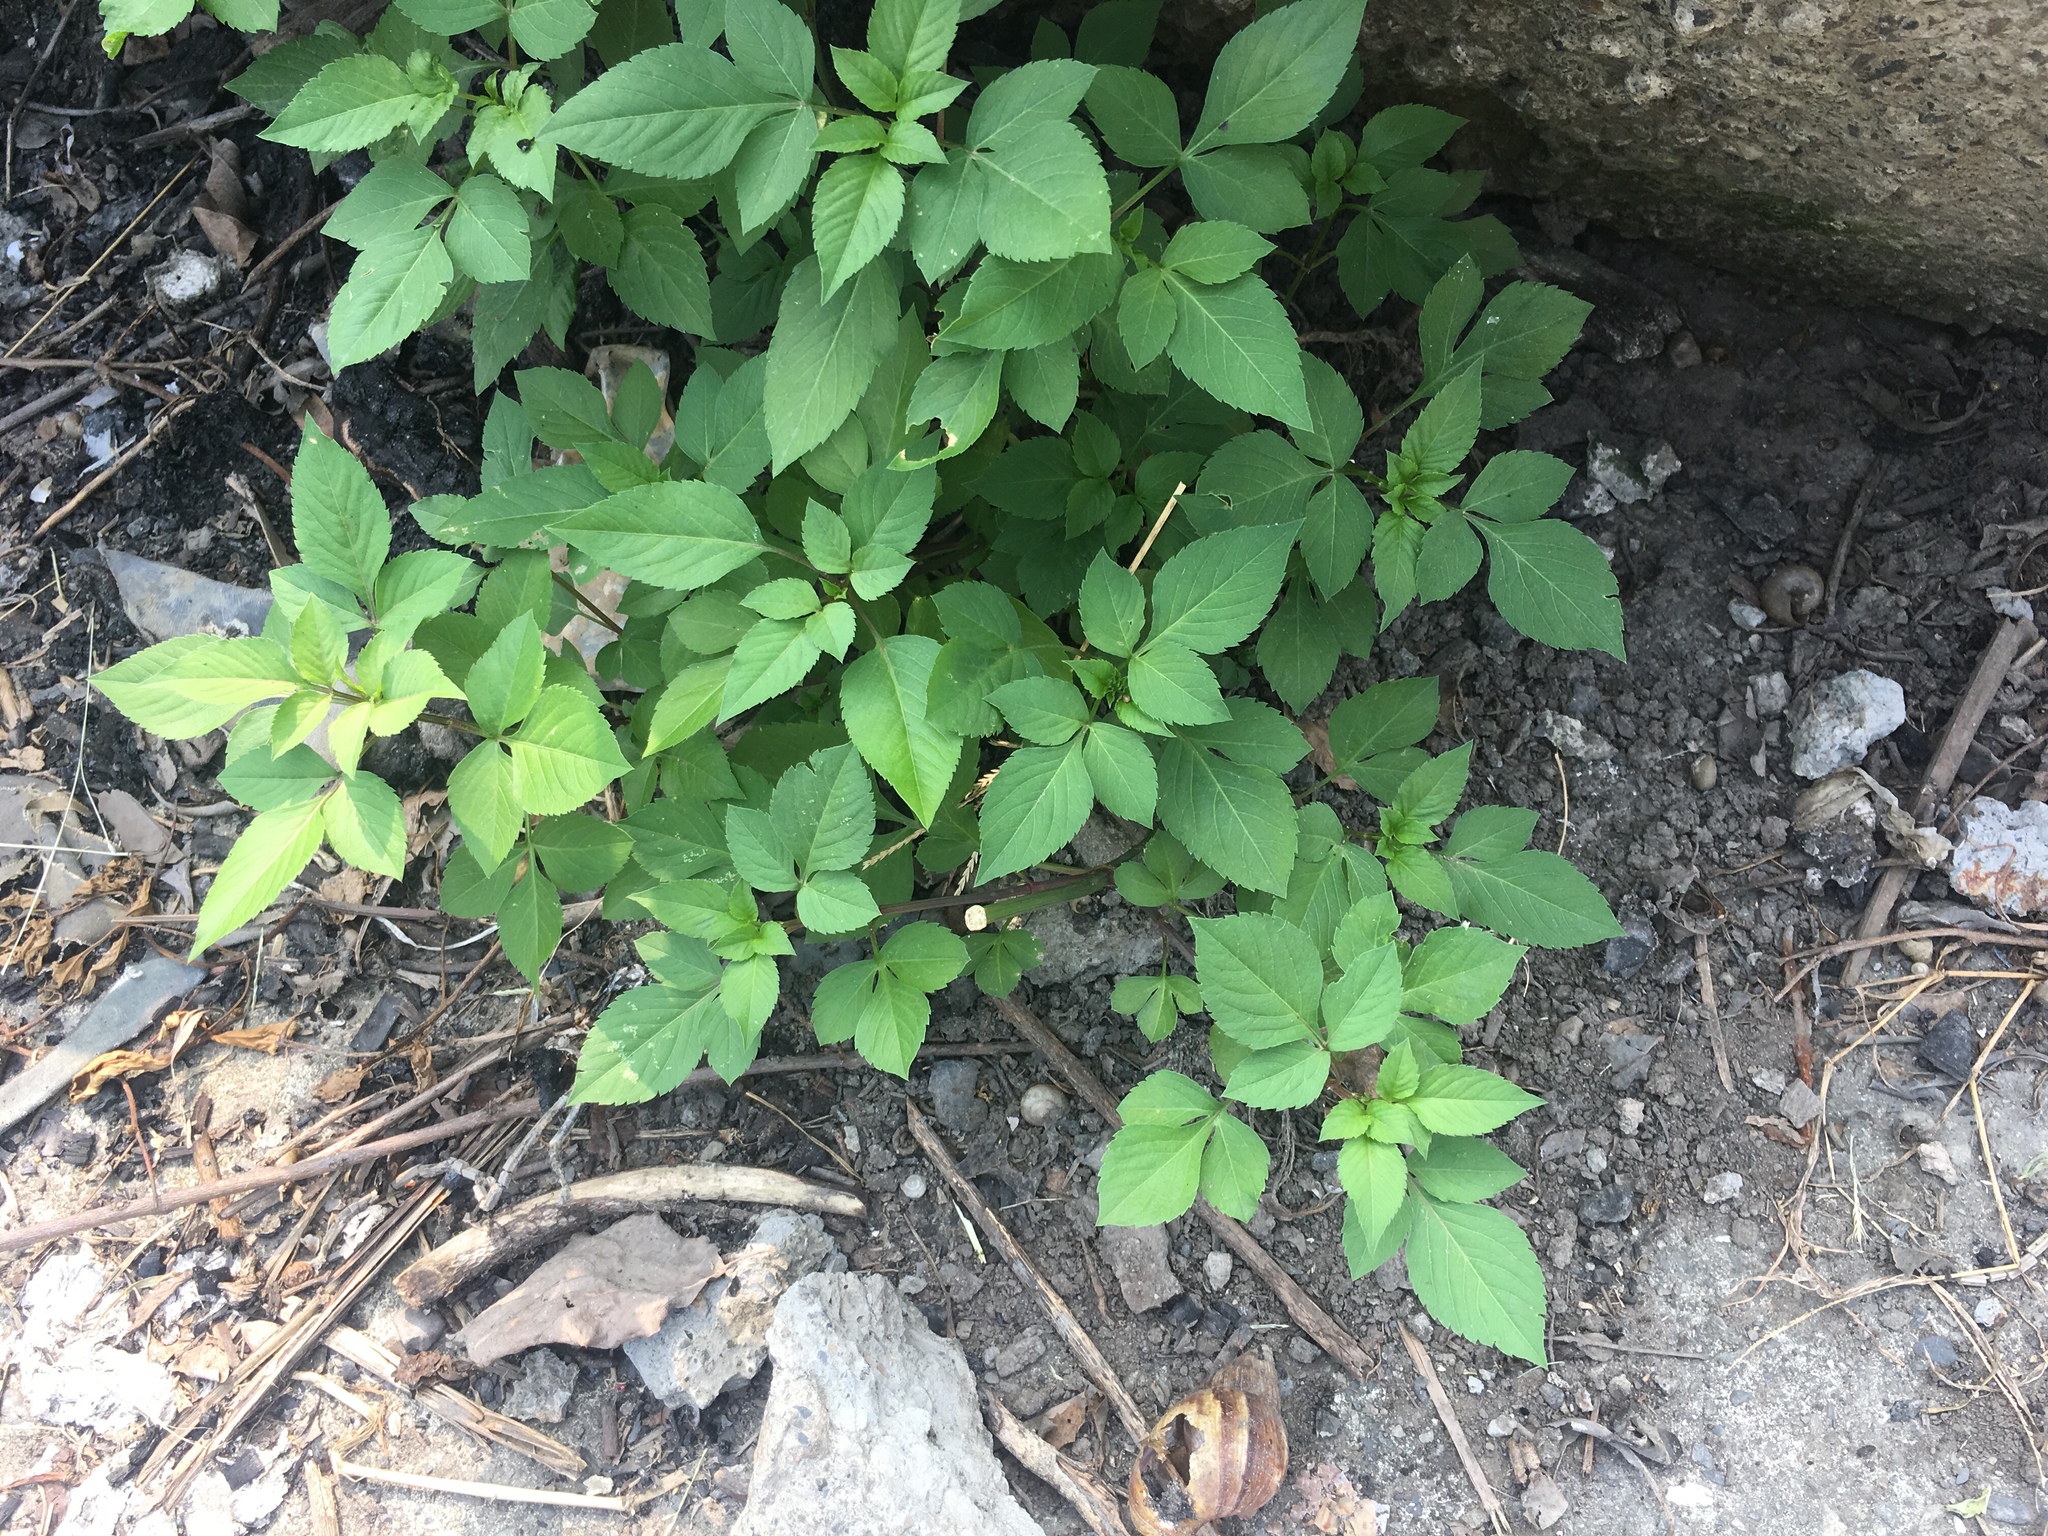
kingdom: Plantae
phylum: Tracheophyta
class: Magnoliopsida
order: Asterales
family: Asteraceae
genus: Bidens
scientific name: Bidens alba
